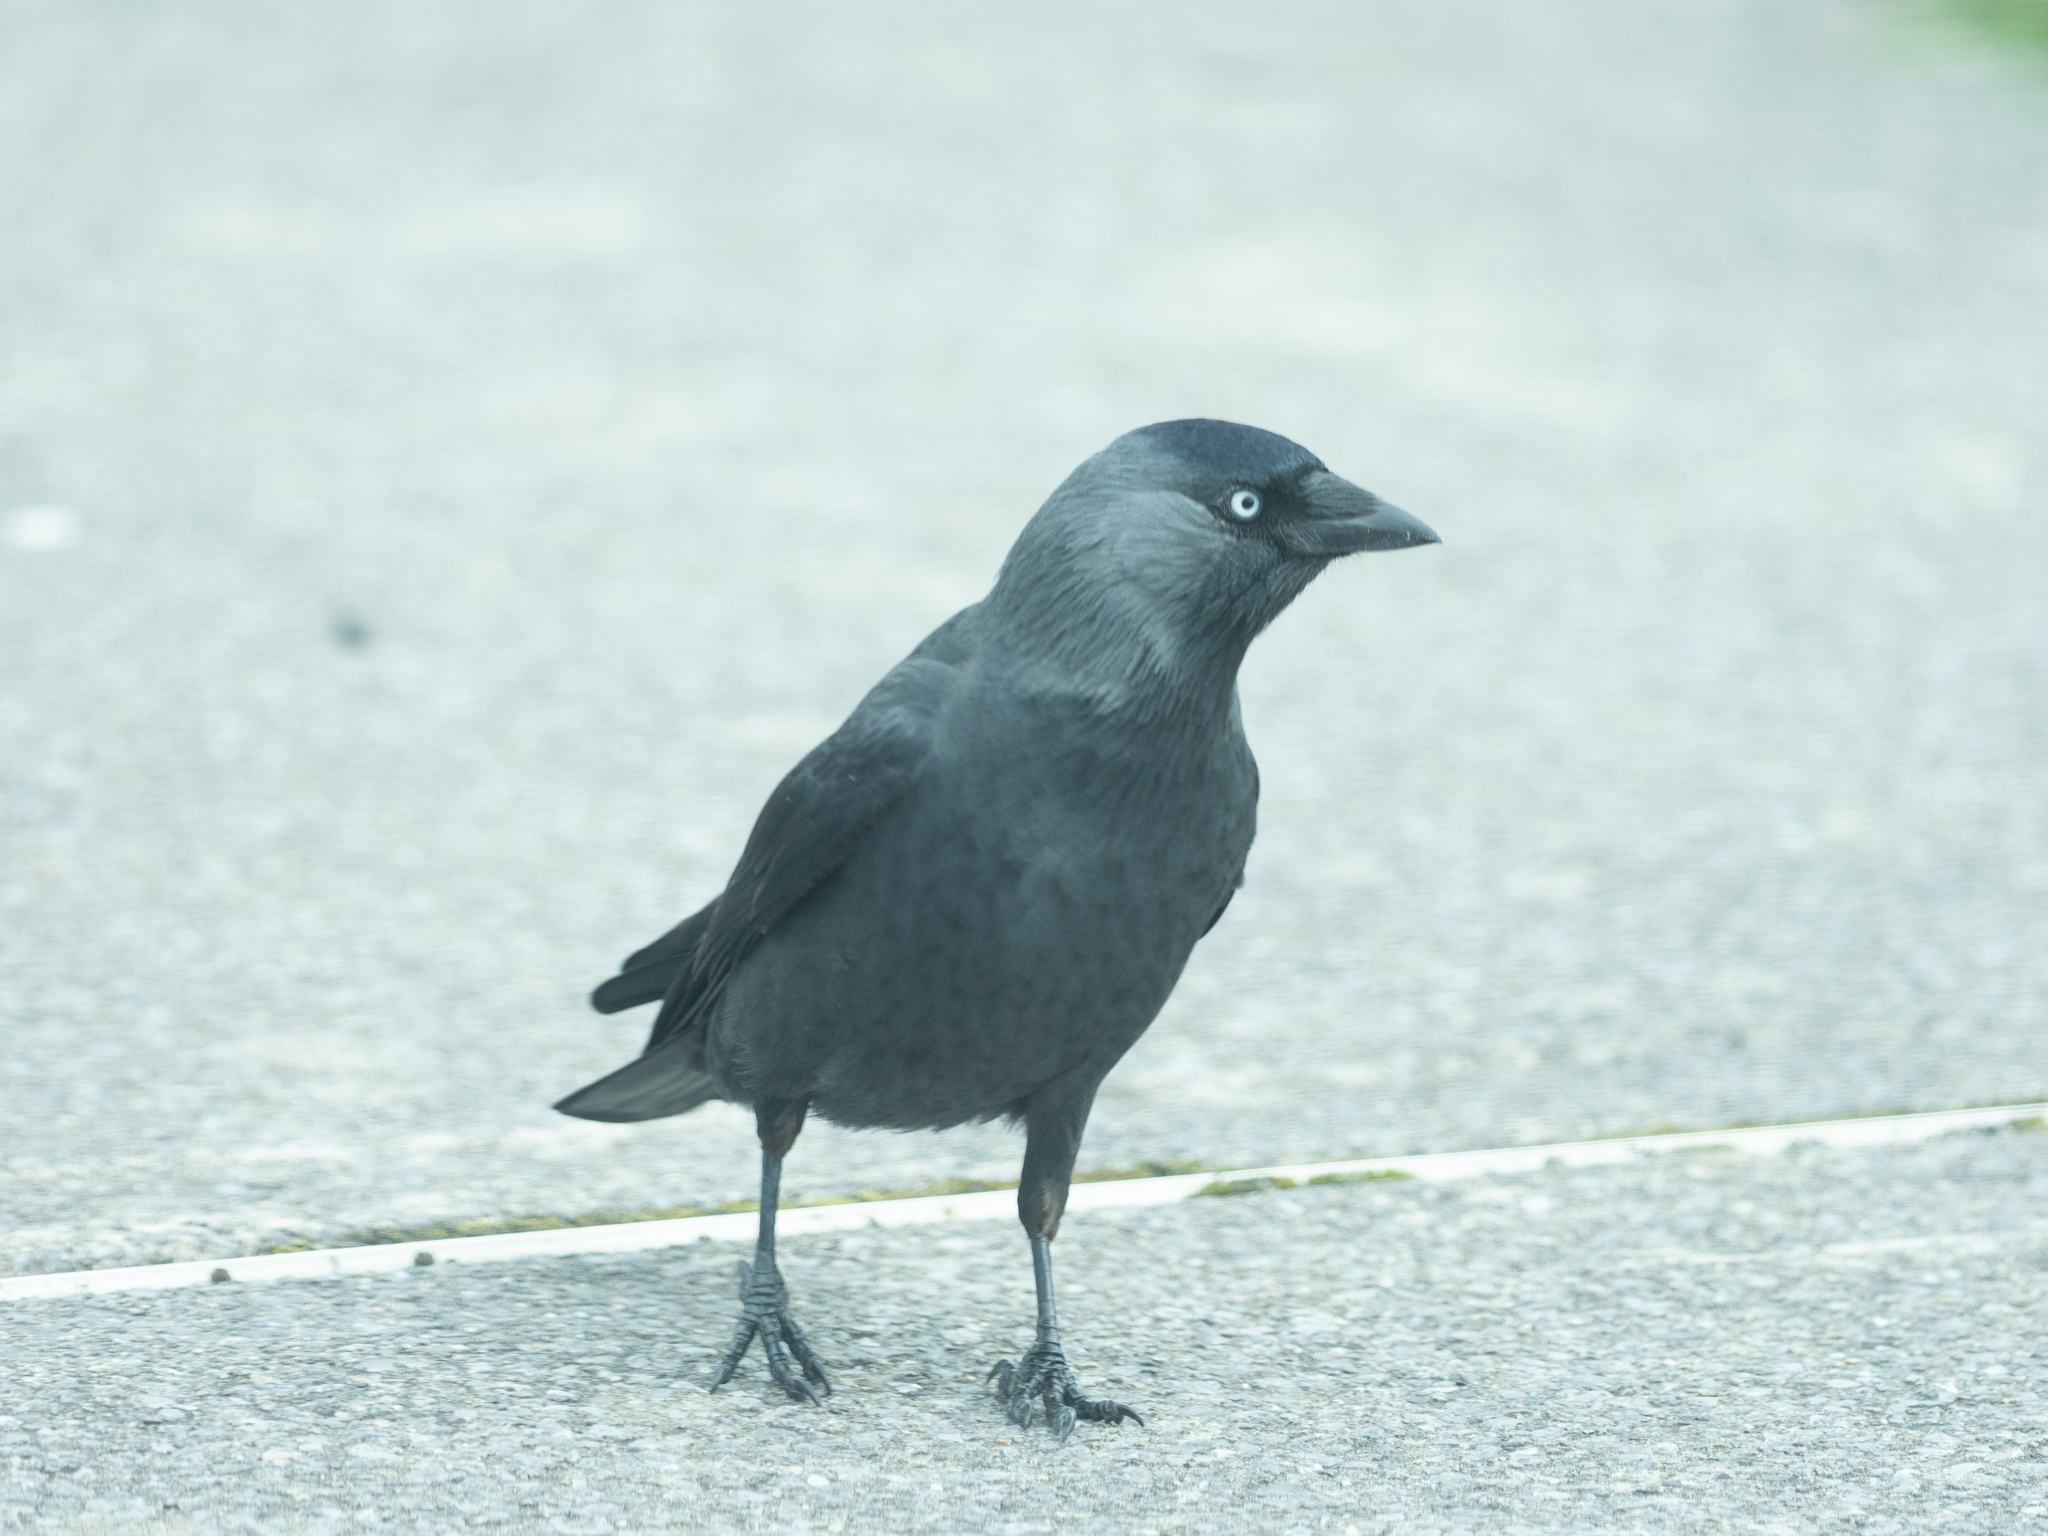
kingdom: Animalia
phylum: Chordata
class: Aves
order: Passeriformes
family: Corvidae
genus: Coloeus
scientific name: Coloeus monedula
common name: Western jackdaw
